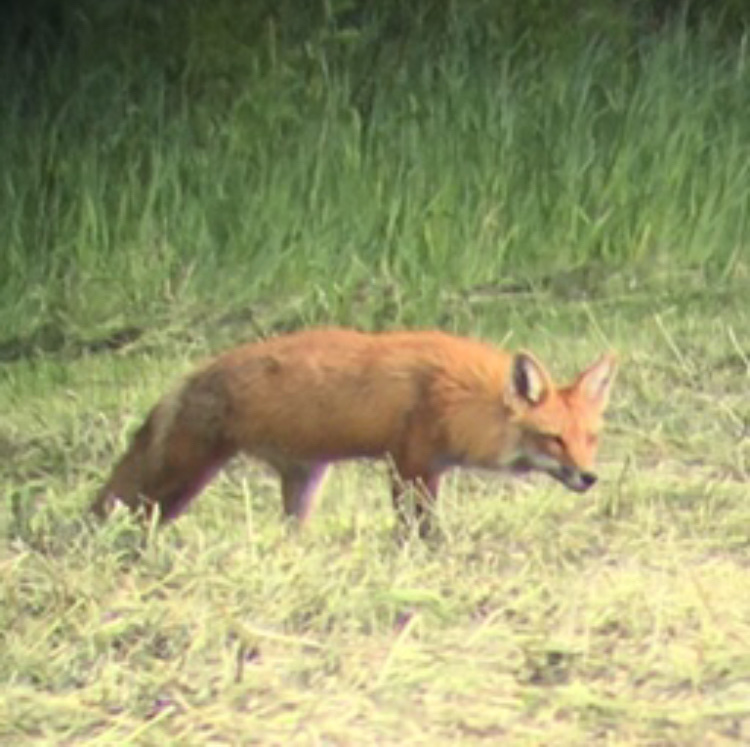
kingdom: Animalia
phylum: Chordata
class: Mammalia
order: Carnivora
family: Canidae
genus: Vulpes
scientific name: Vulpes vulpes
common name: Red fox
